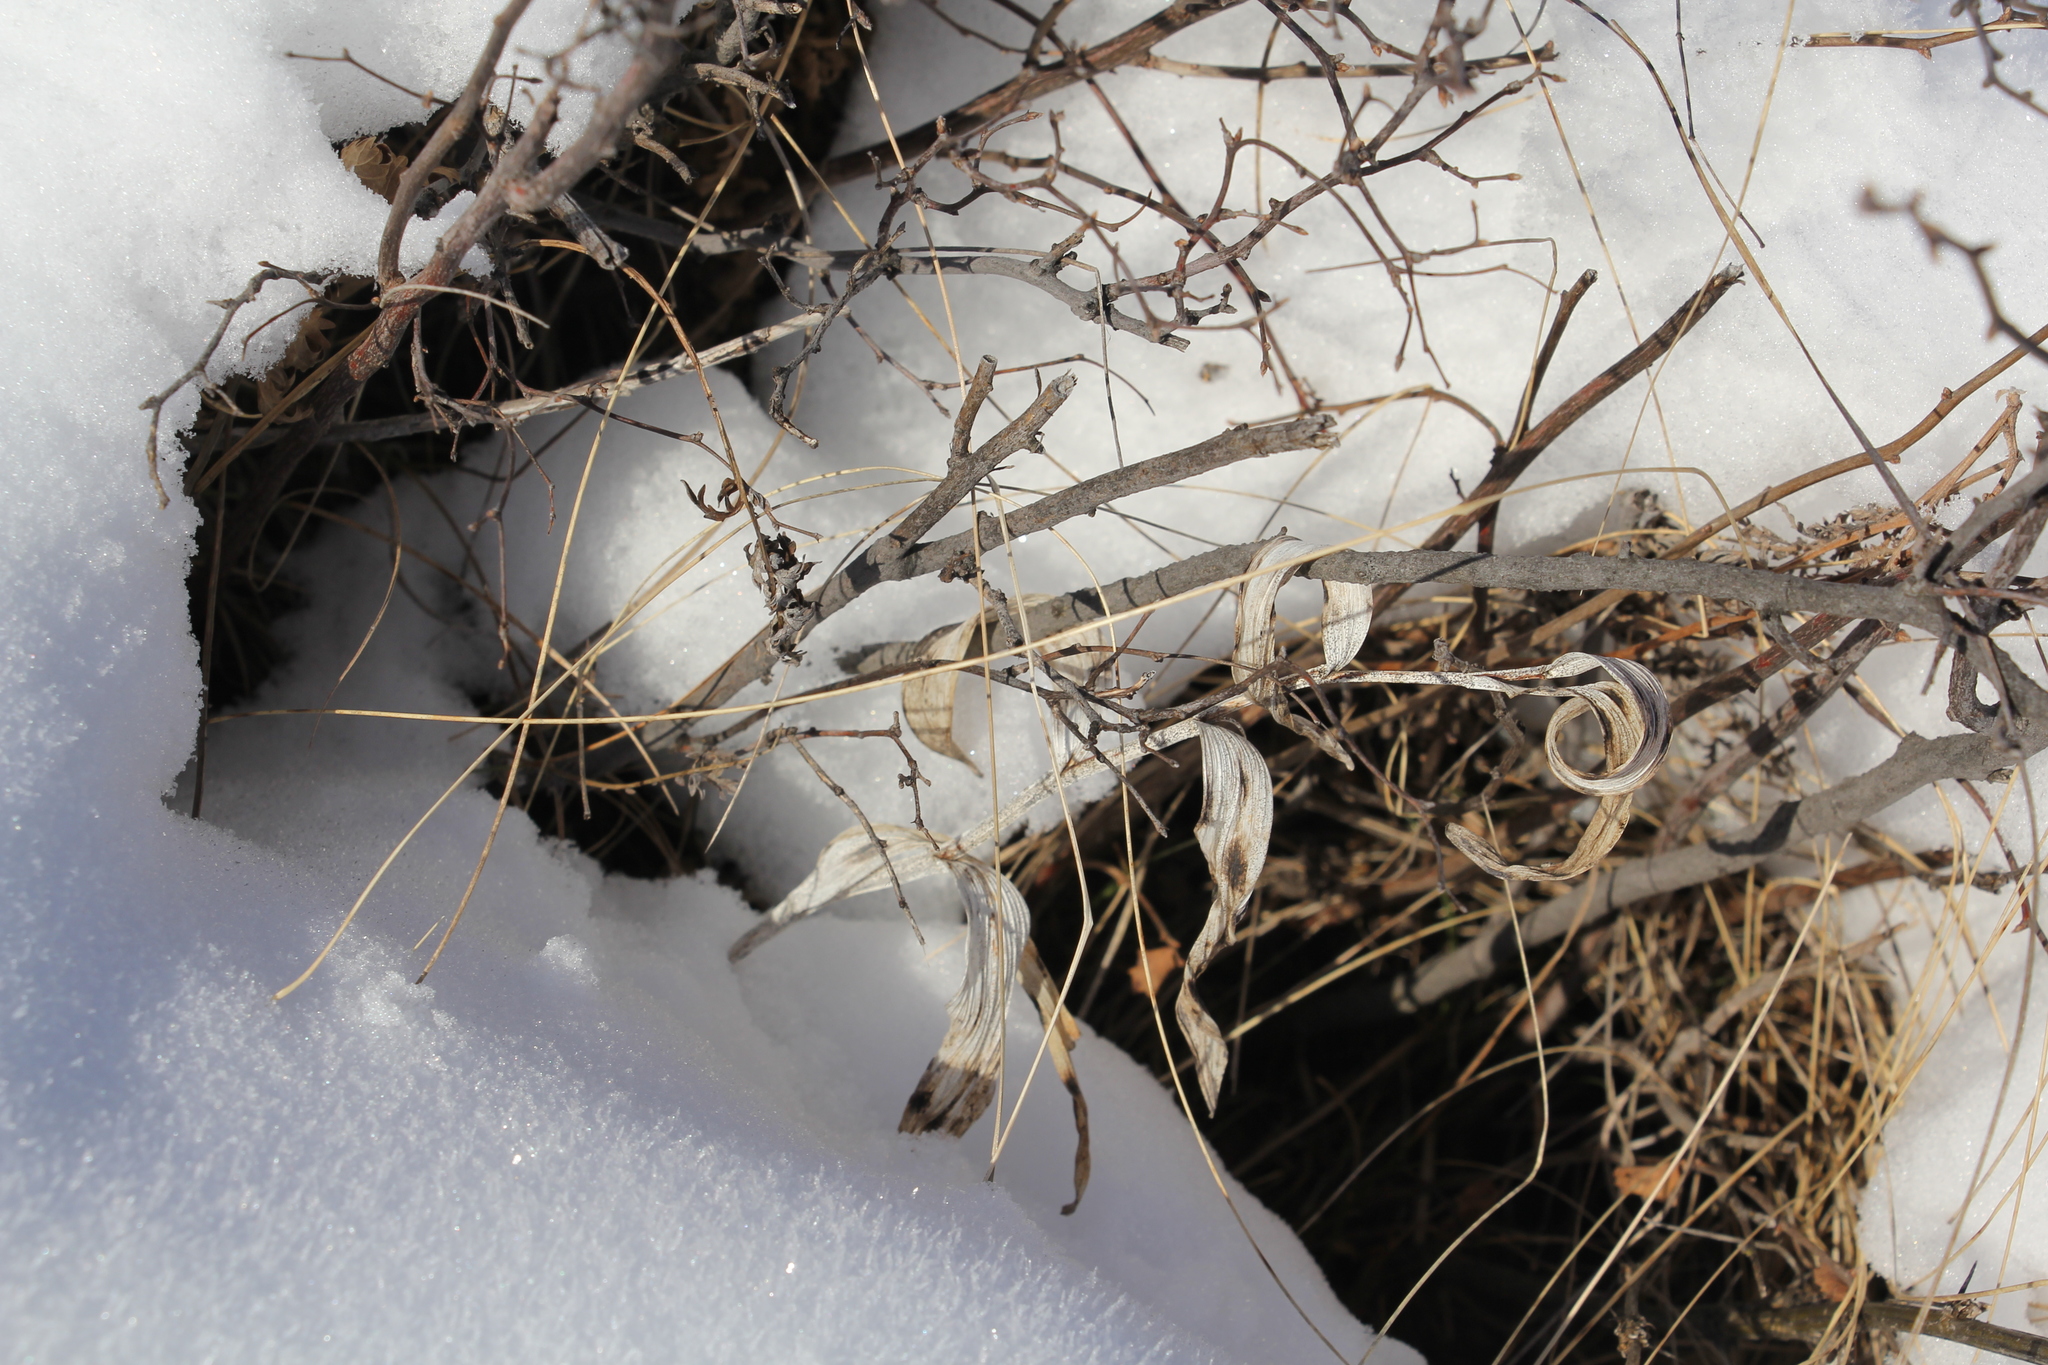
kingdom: Plantae
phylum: Tracheophyta
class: Liliopsida
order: Asparagales
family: Asparagaceae
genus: Polygonatum
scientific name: Polygonatum odoratum
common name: Angular solomon's-seal
